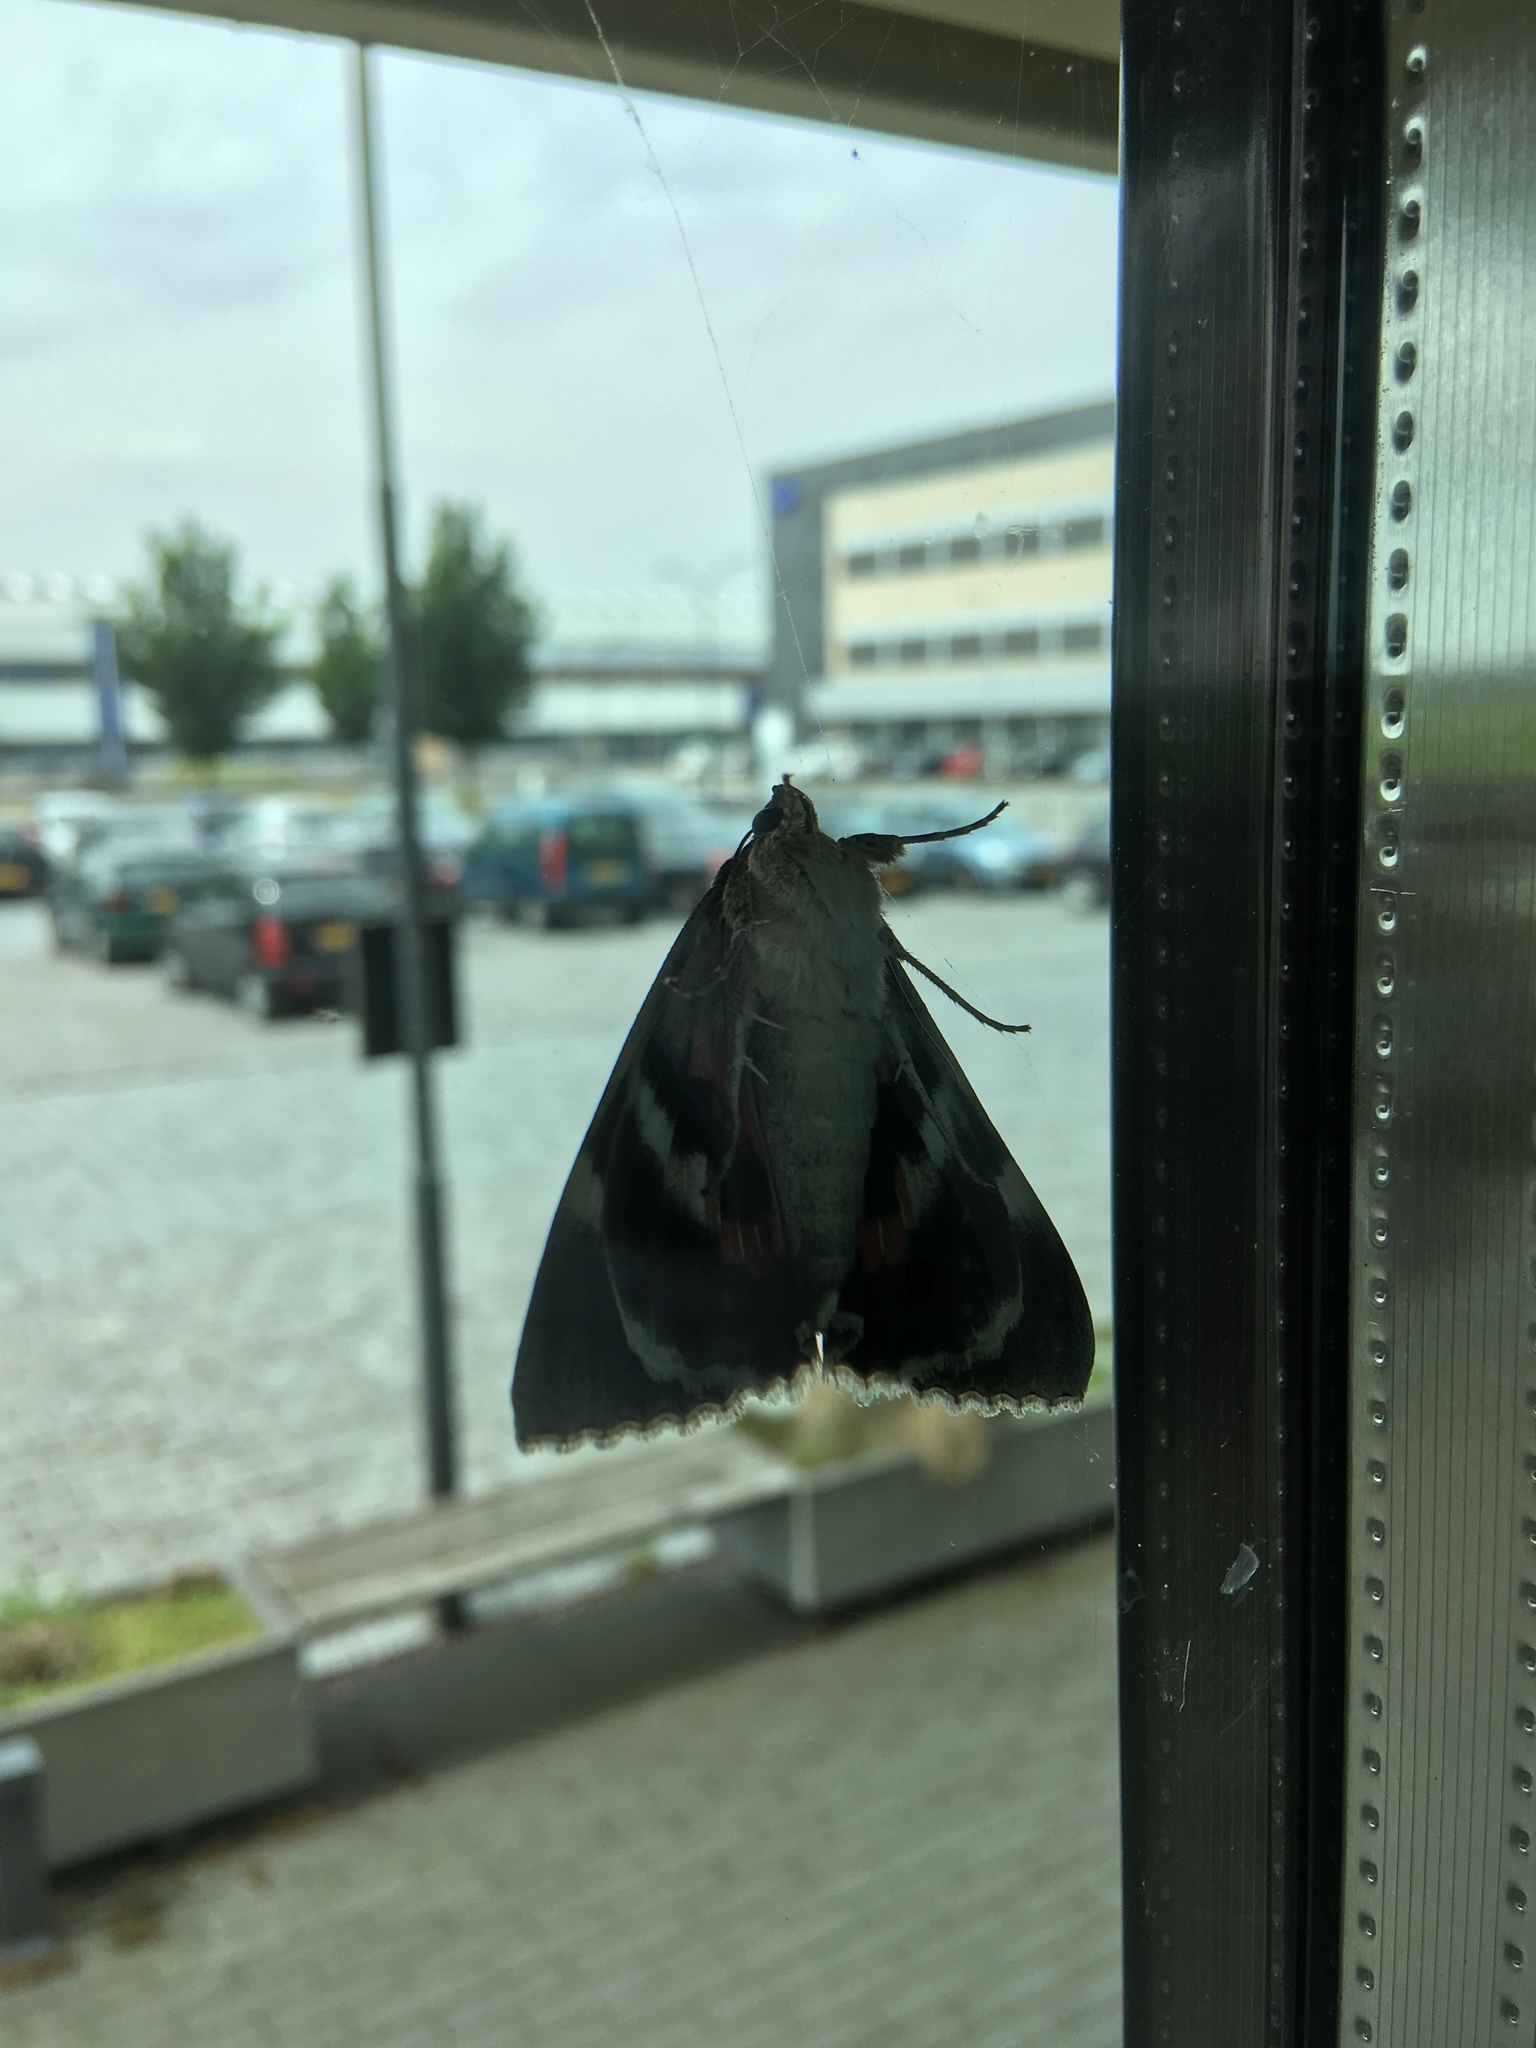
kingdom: Animalia
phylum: Arthropoda
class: Insecta
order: Lepidoptera
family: Erebidae
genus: Catocala
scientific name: Catocala nupta
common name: Red underwing
